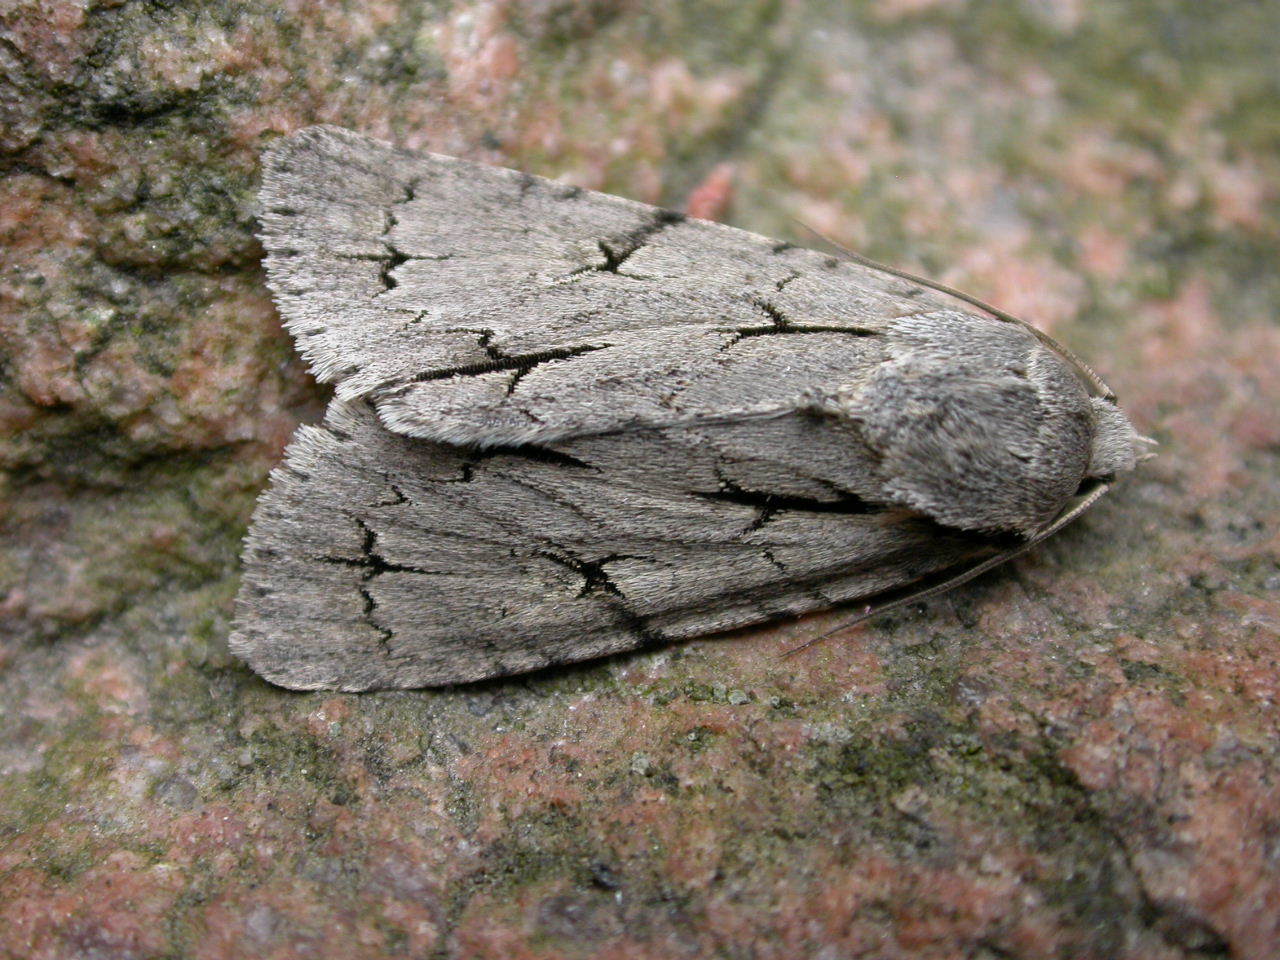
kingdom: Animalia
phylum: Arthropoda
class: Insecta
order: Lepidoptera
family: Noctuidae
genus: Acronicta
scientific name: Acronicta
